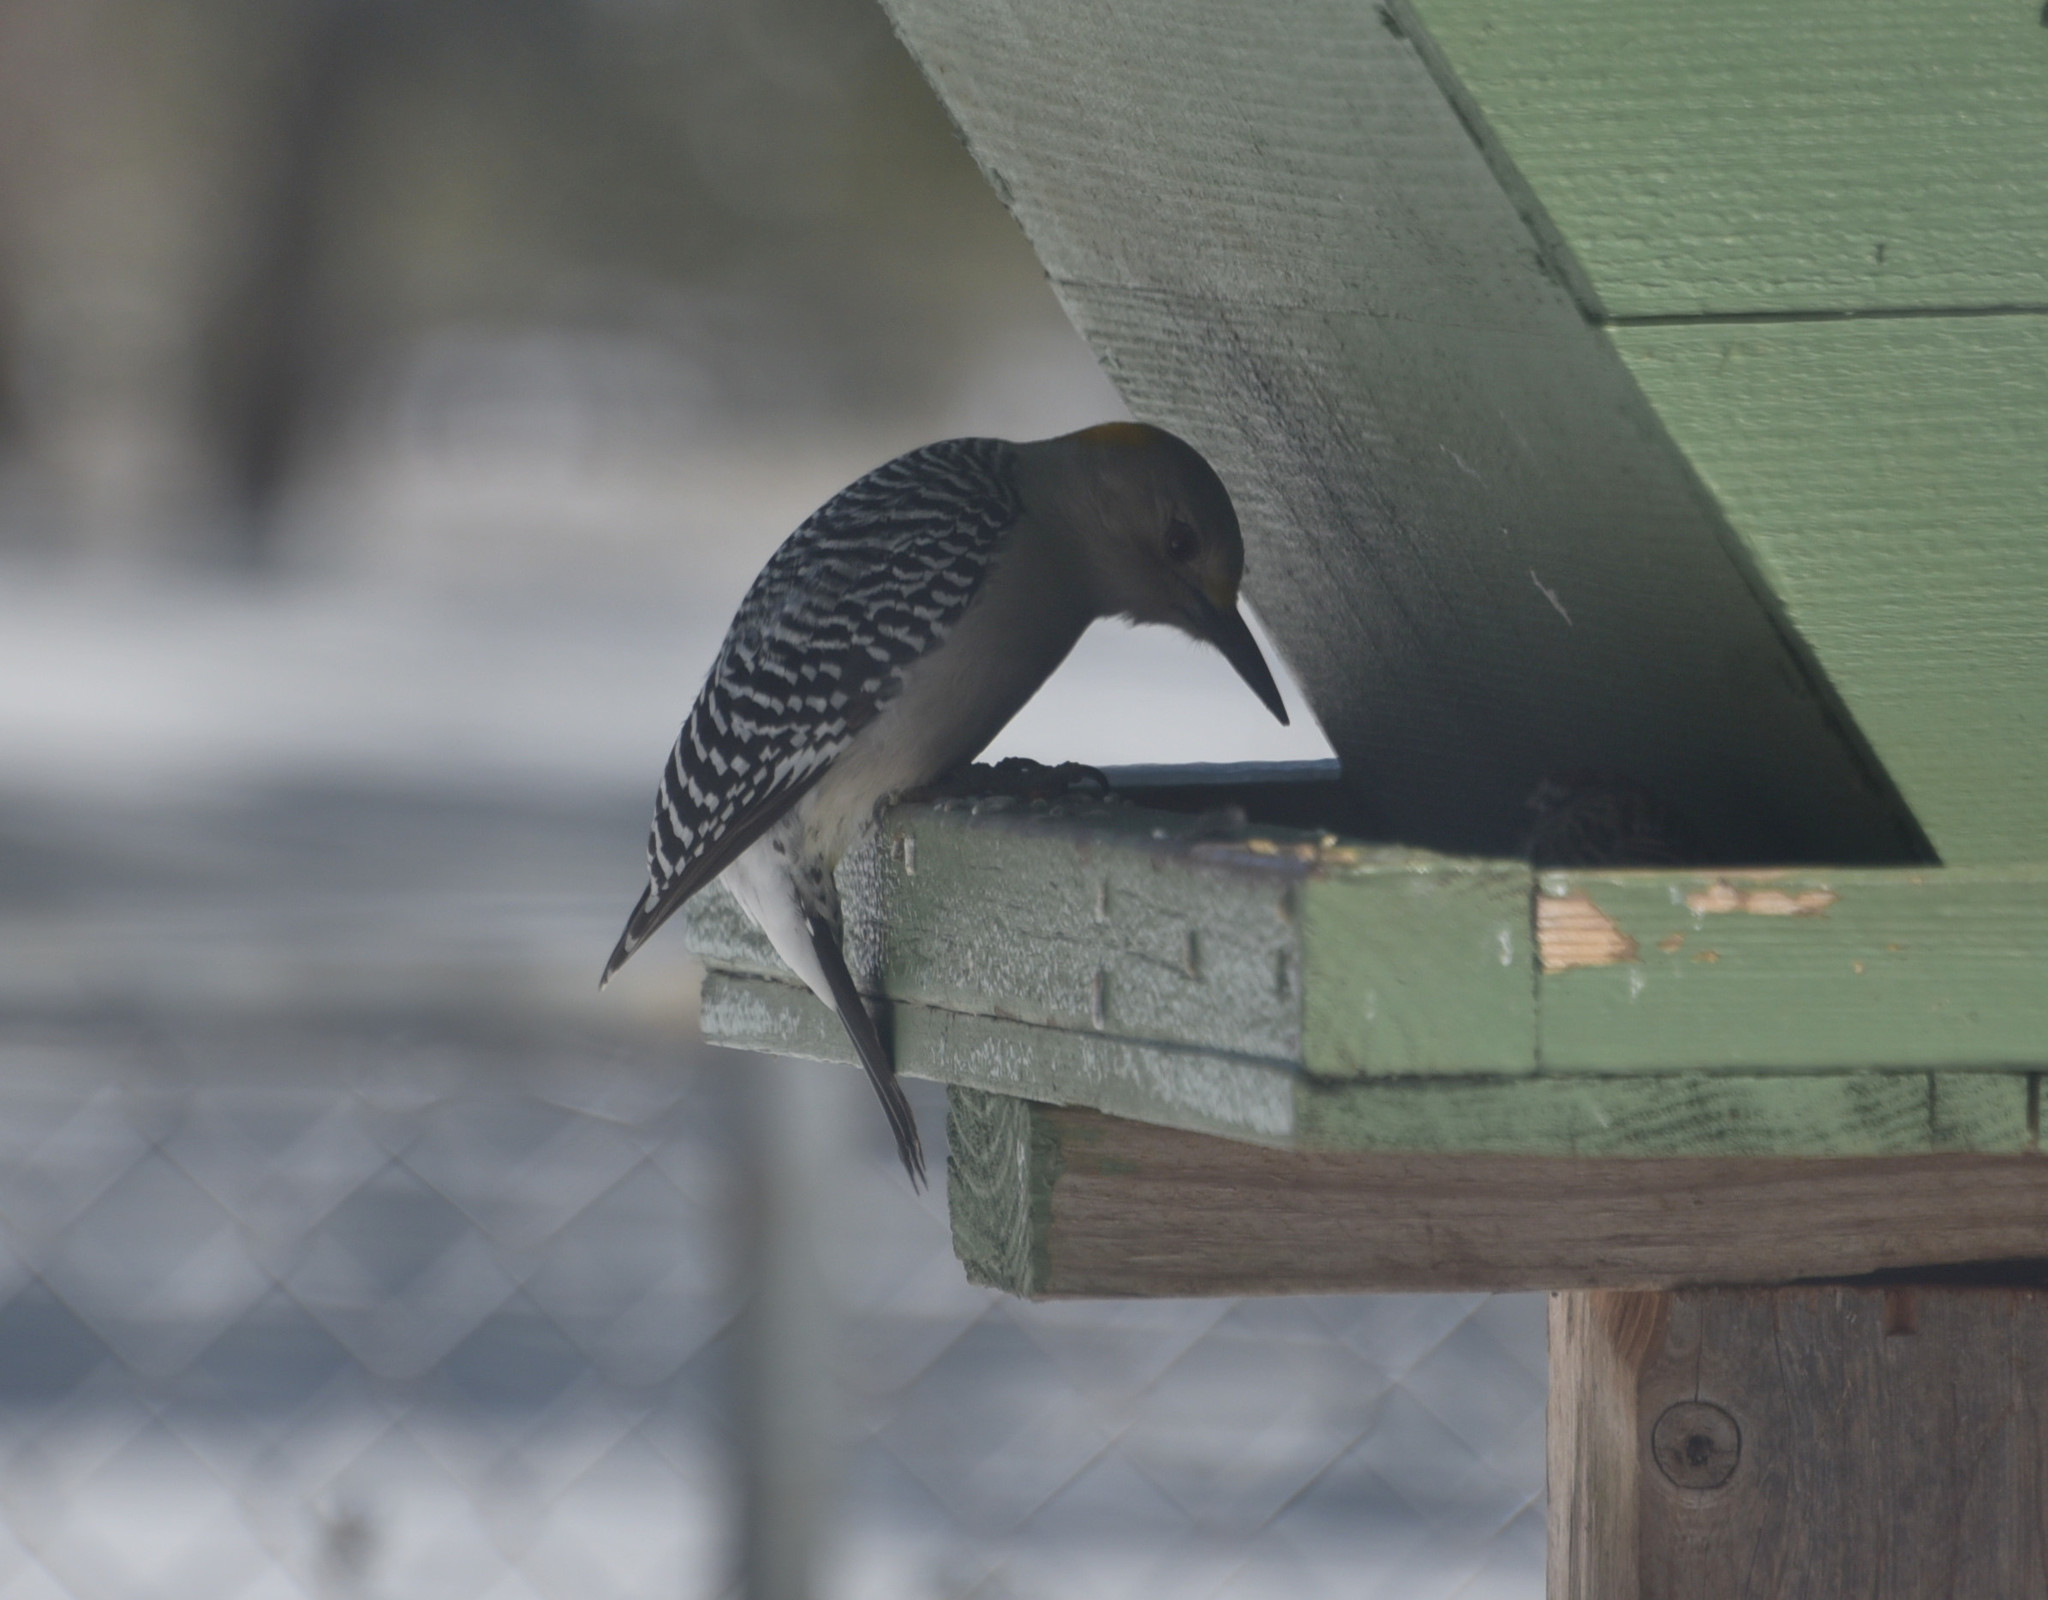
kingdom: Animalia
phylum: Chordata
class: Aves
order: Piciformes
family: Picidae
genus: Melanerpes
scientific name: Melanerpes aurifrons
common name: Golden-fronted woodpecker
